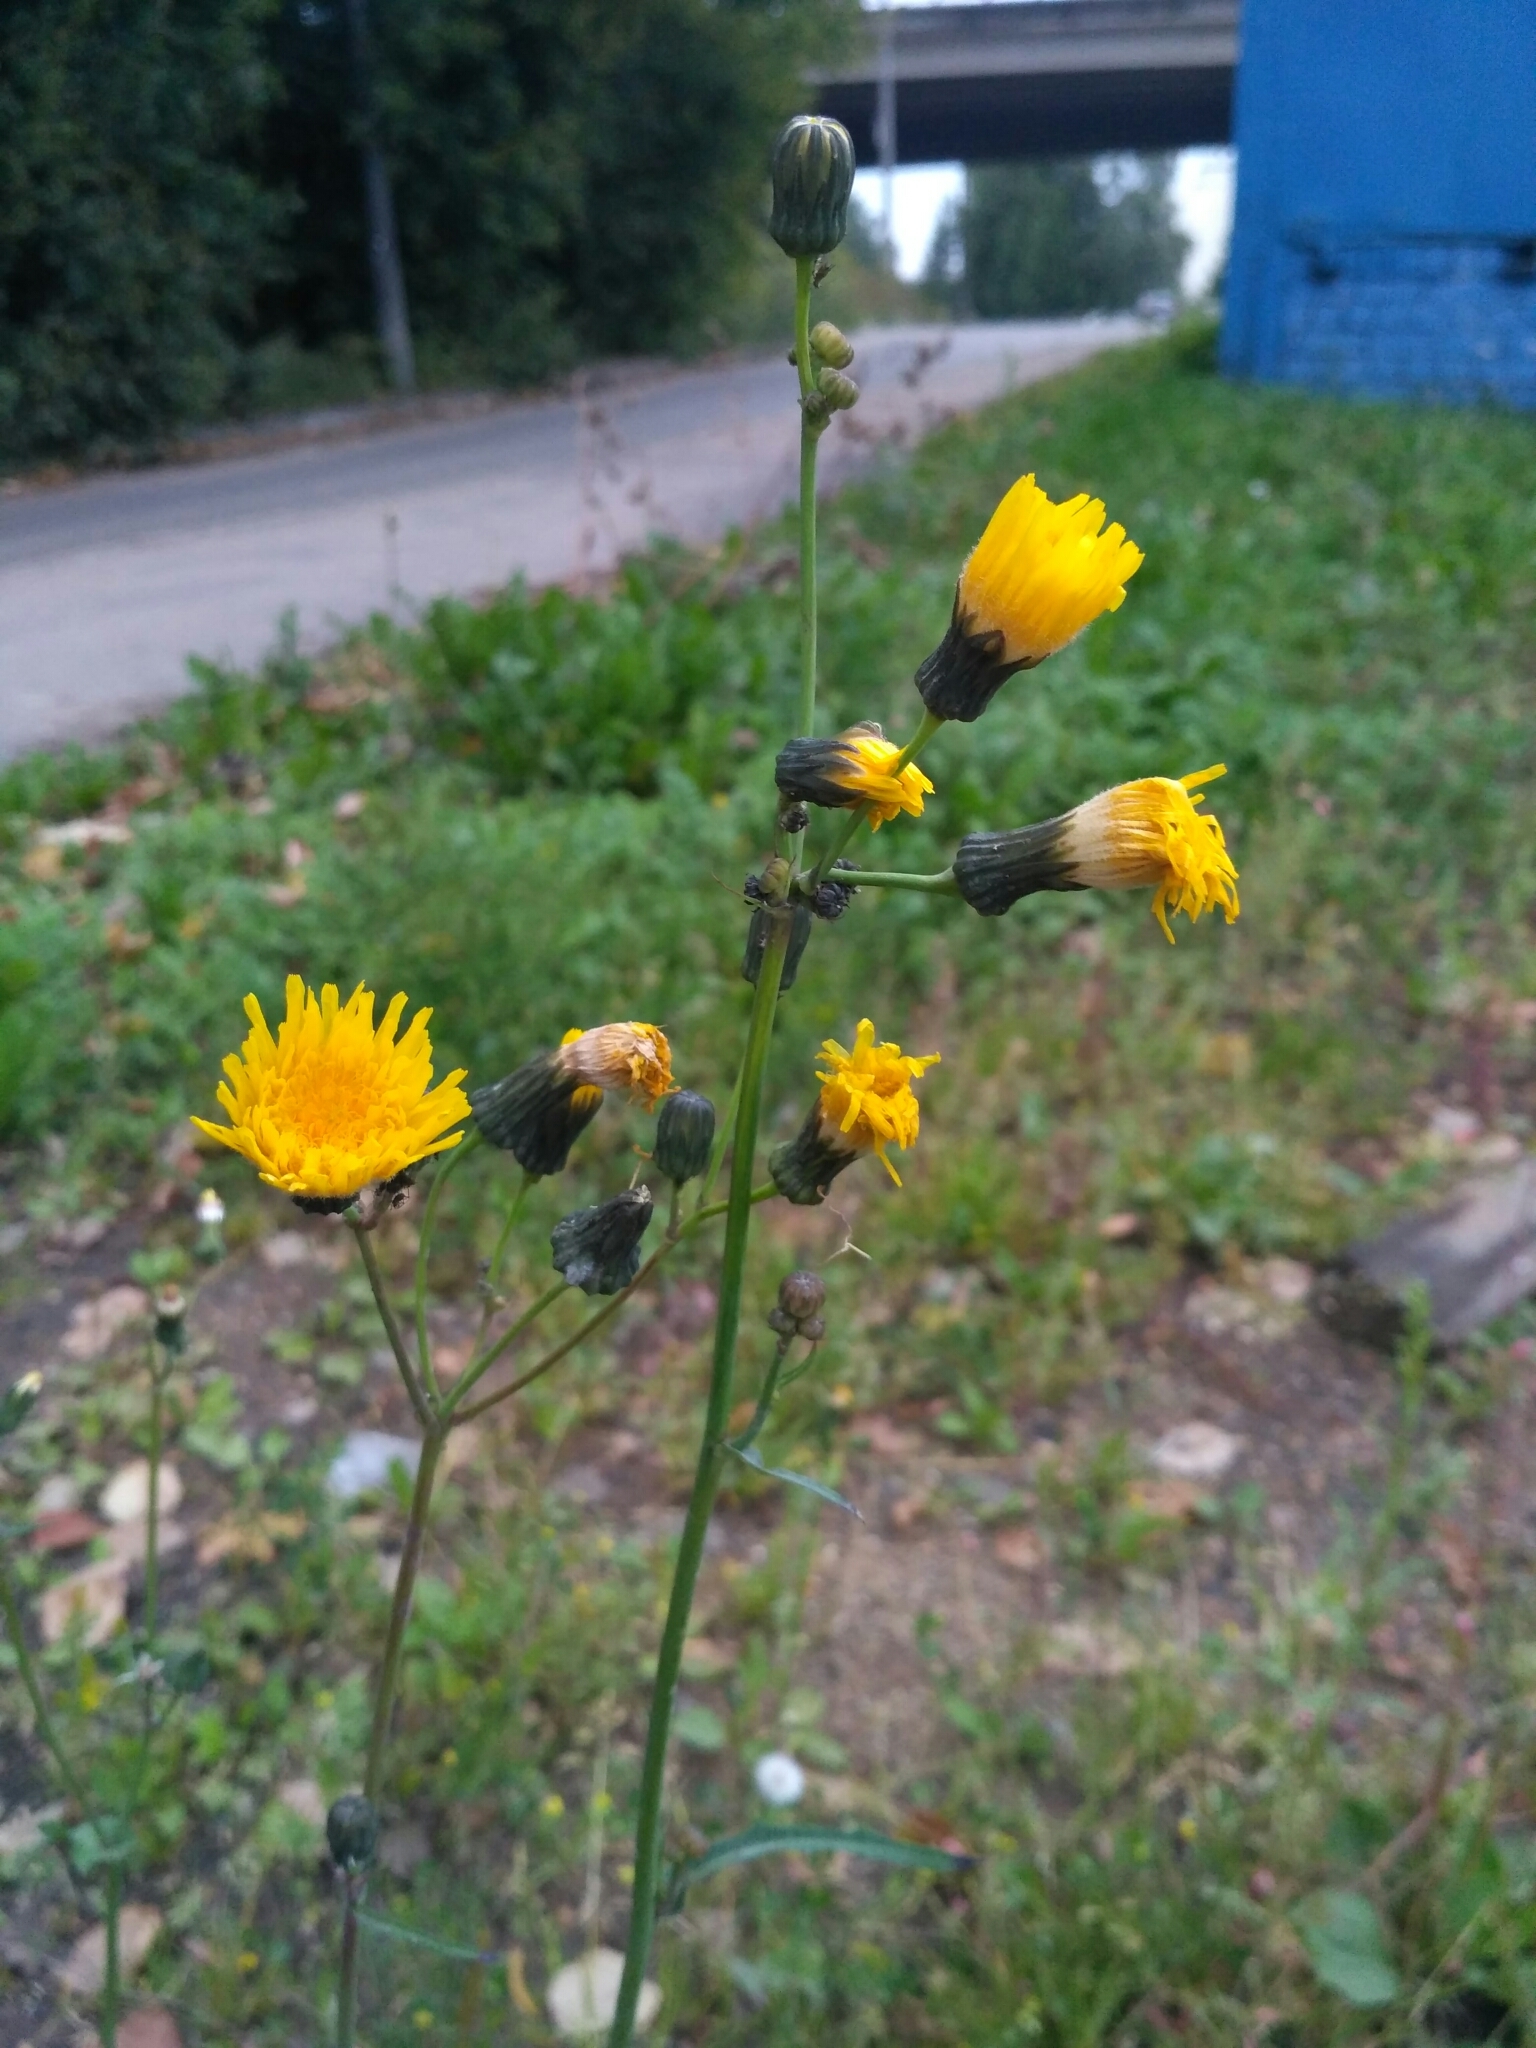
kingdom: Plantae
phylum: Tracheophyta
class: Magnoliopsida
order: Asterales
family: Asteraceae
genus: Sonchus
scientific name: Sonchus arvensis
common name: Perennial sow-thistle
